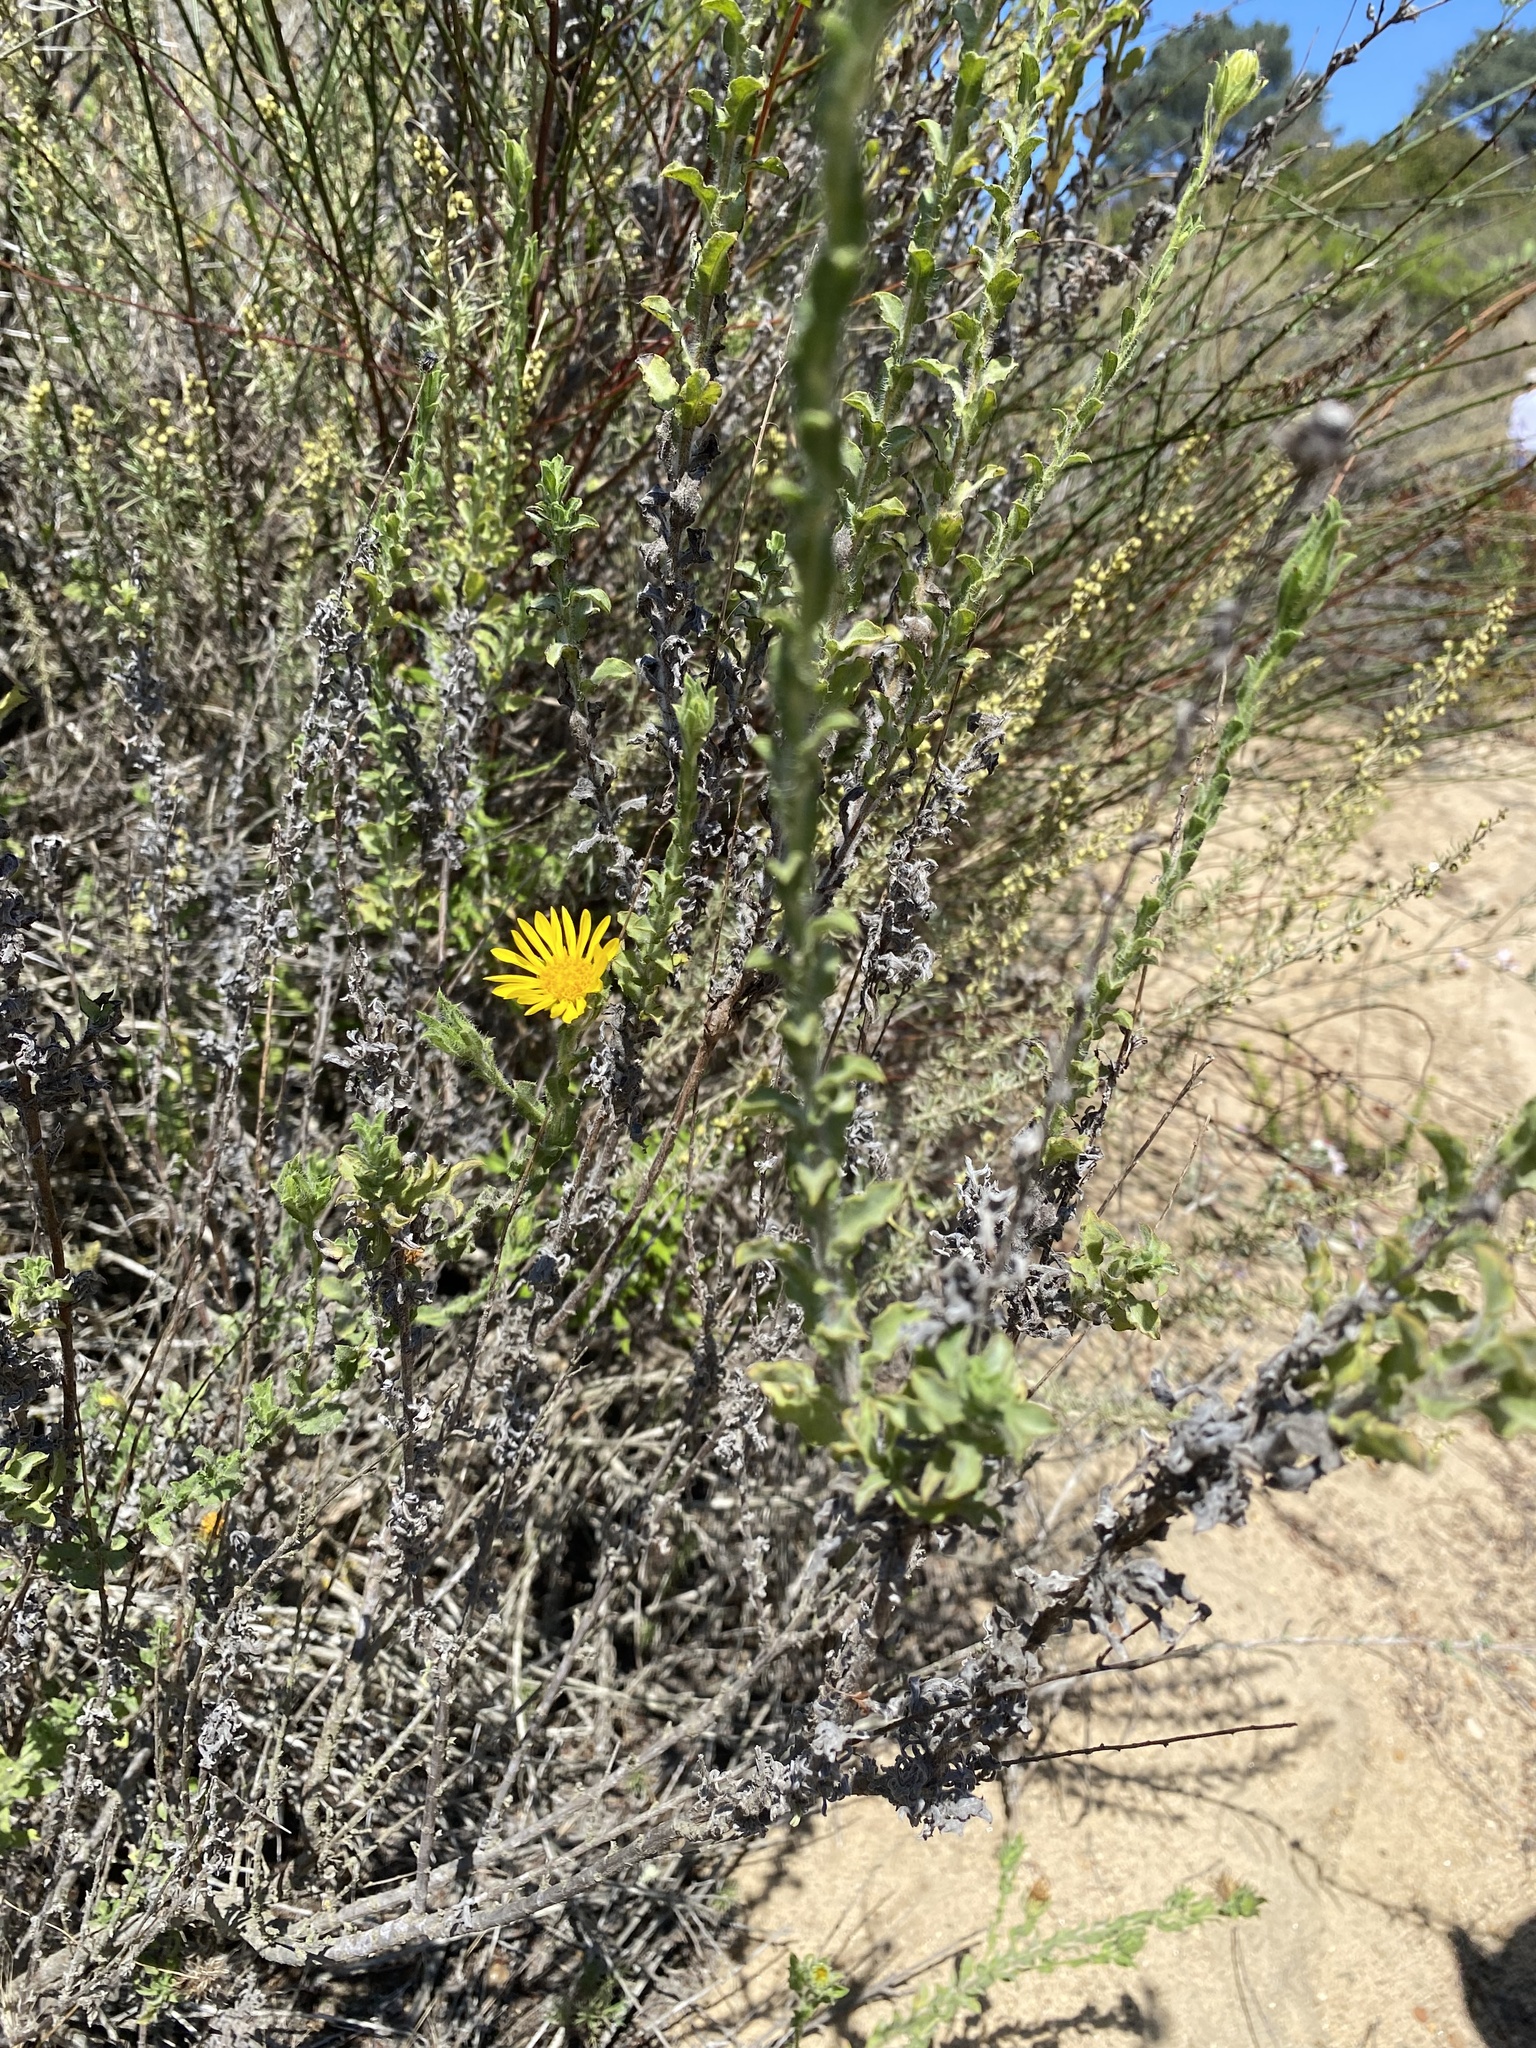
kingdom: Plantae
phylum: Tracheophyta
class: Magnoliopsida
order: Asterales
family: Asteraceae
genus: Heterotheca
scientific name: Heterotheca sessiliflora
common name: Sessile-flower golden-aster
